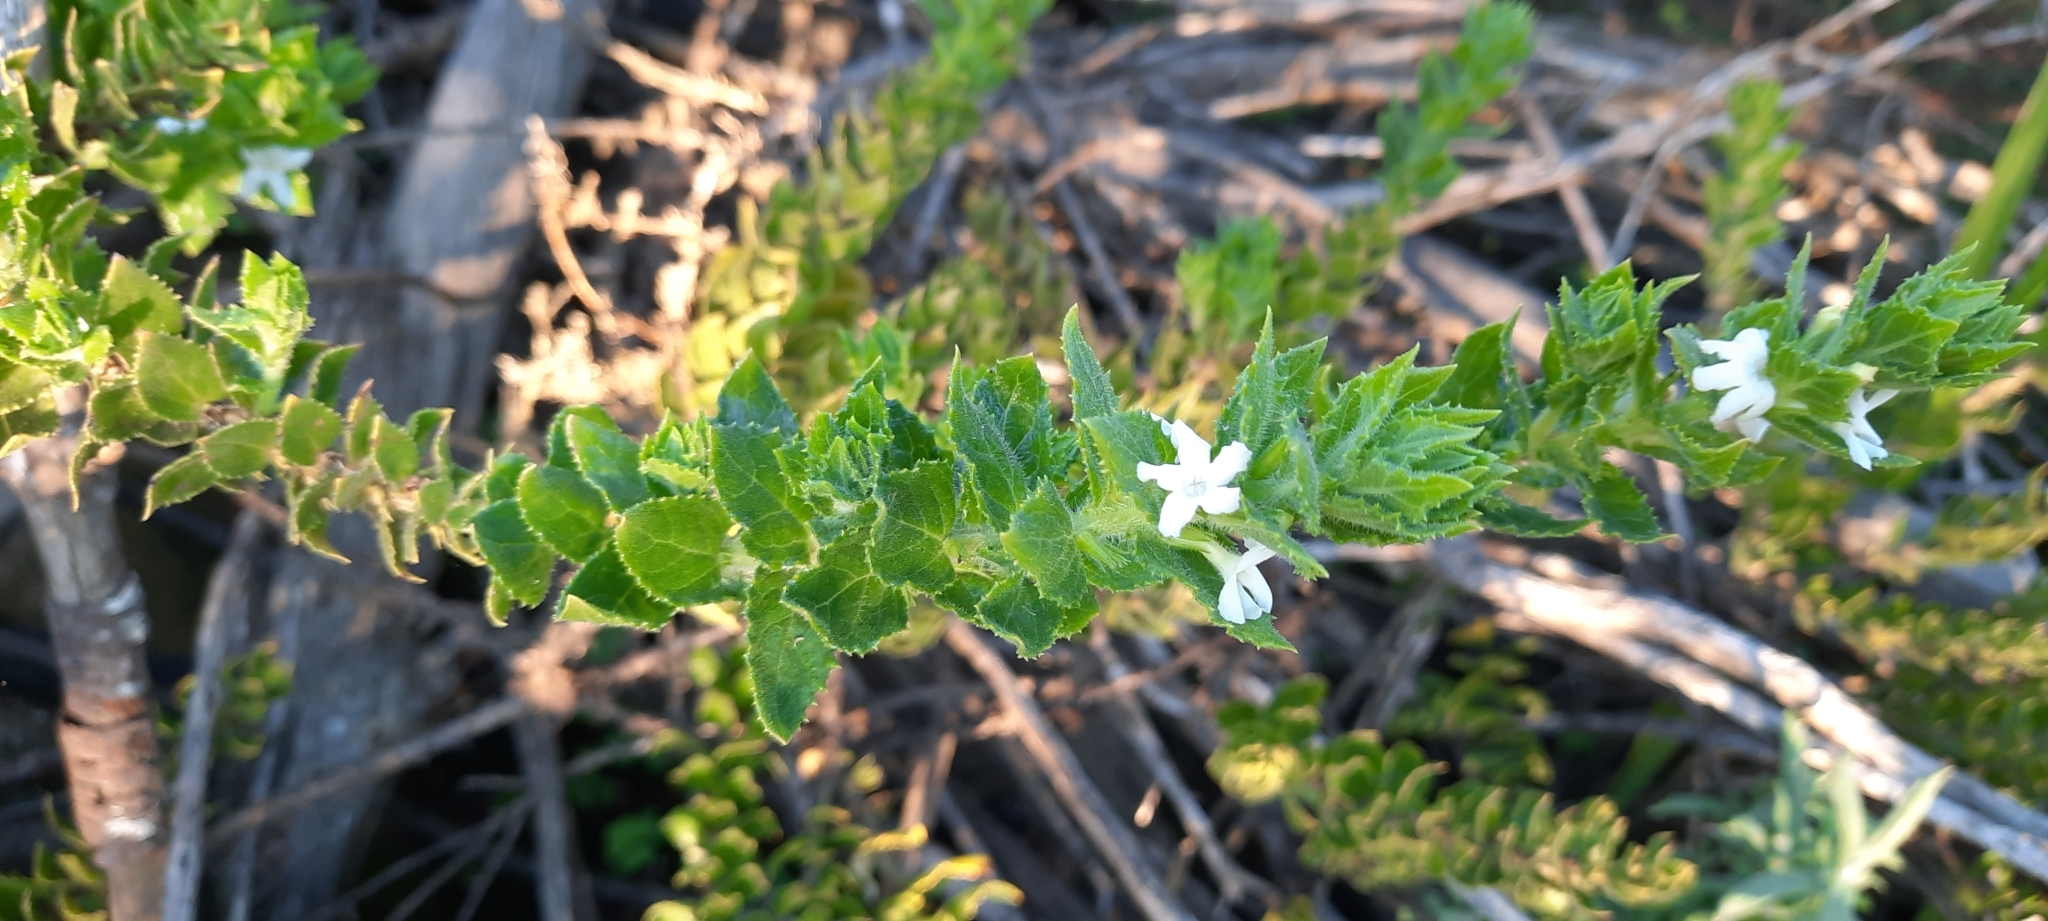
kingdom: Plantae
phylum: Tracheophyta
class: Magnoliopsida
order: Lamiales
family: Scrophulariaceae
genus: Oftia
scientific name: Oftia africana
